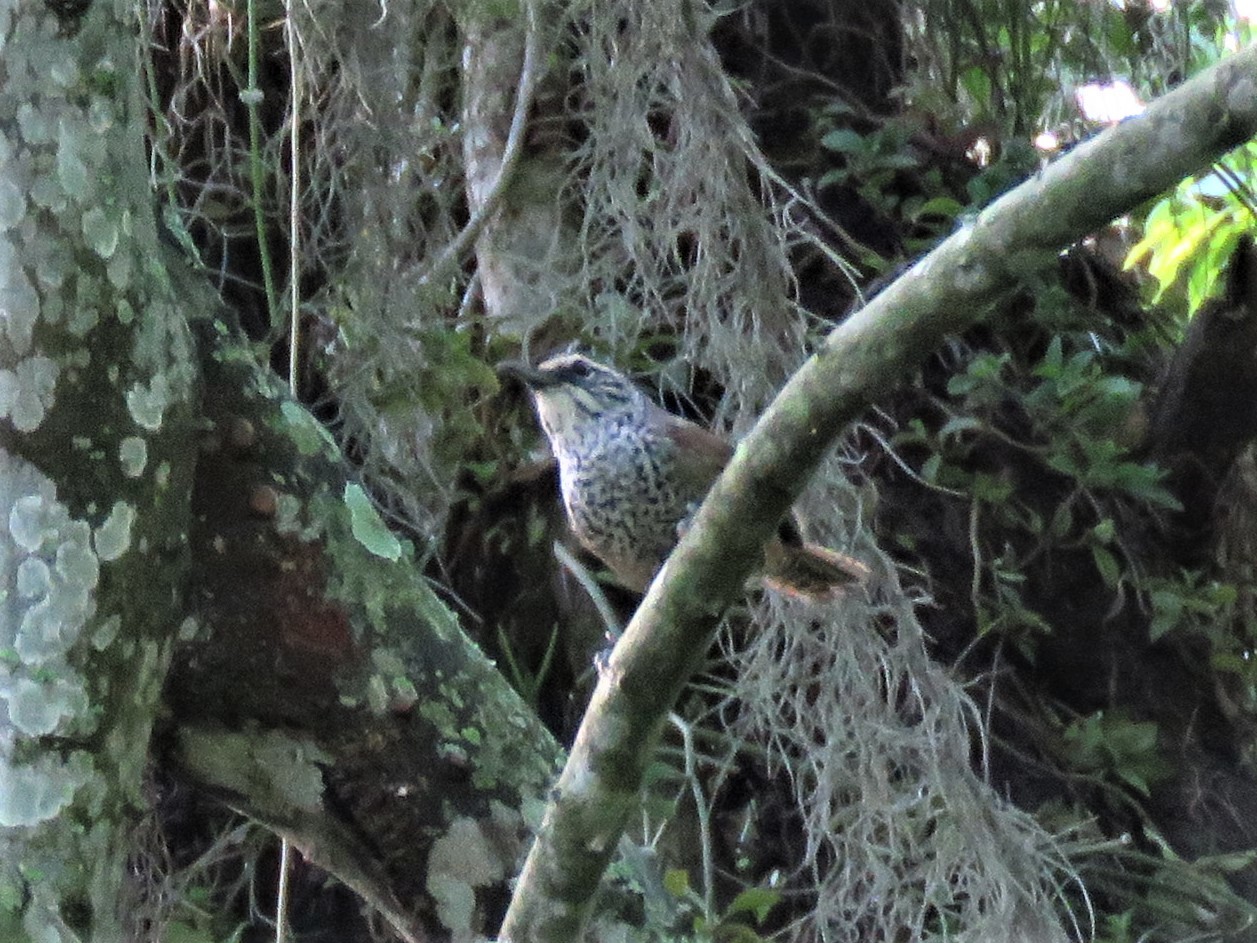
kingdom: Animalia
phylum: Chordata
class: Aves
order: Passeriformes
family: Troglodytidae
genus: Pheugopedius
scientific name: Pheugopedius maculipectus
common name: Spot-breasted wren
